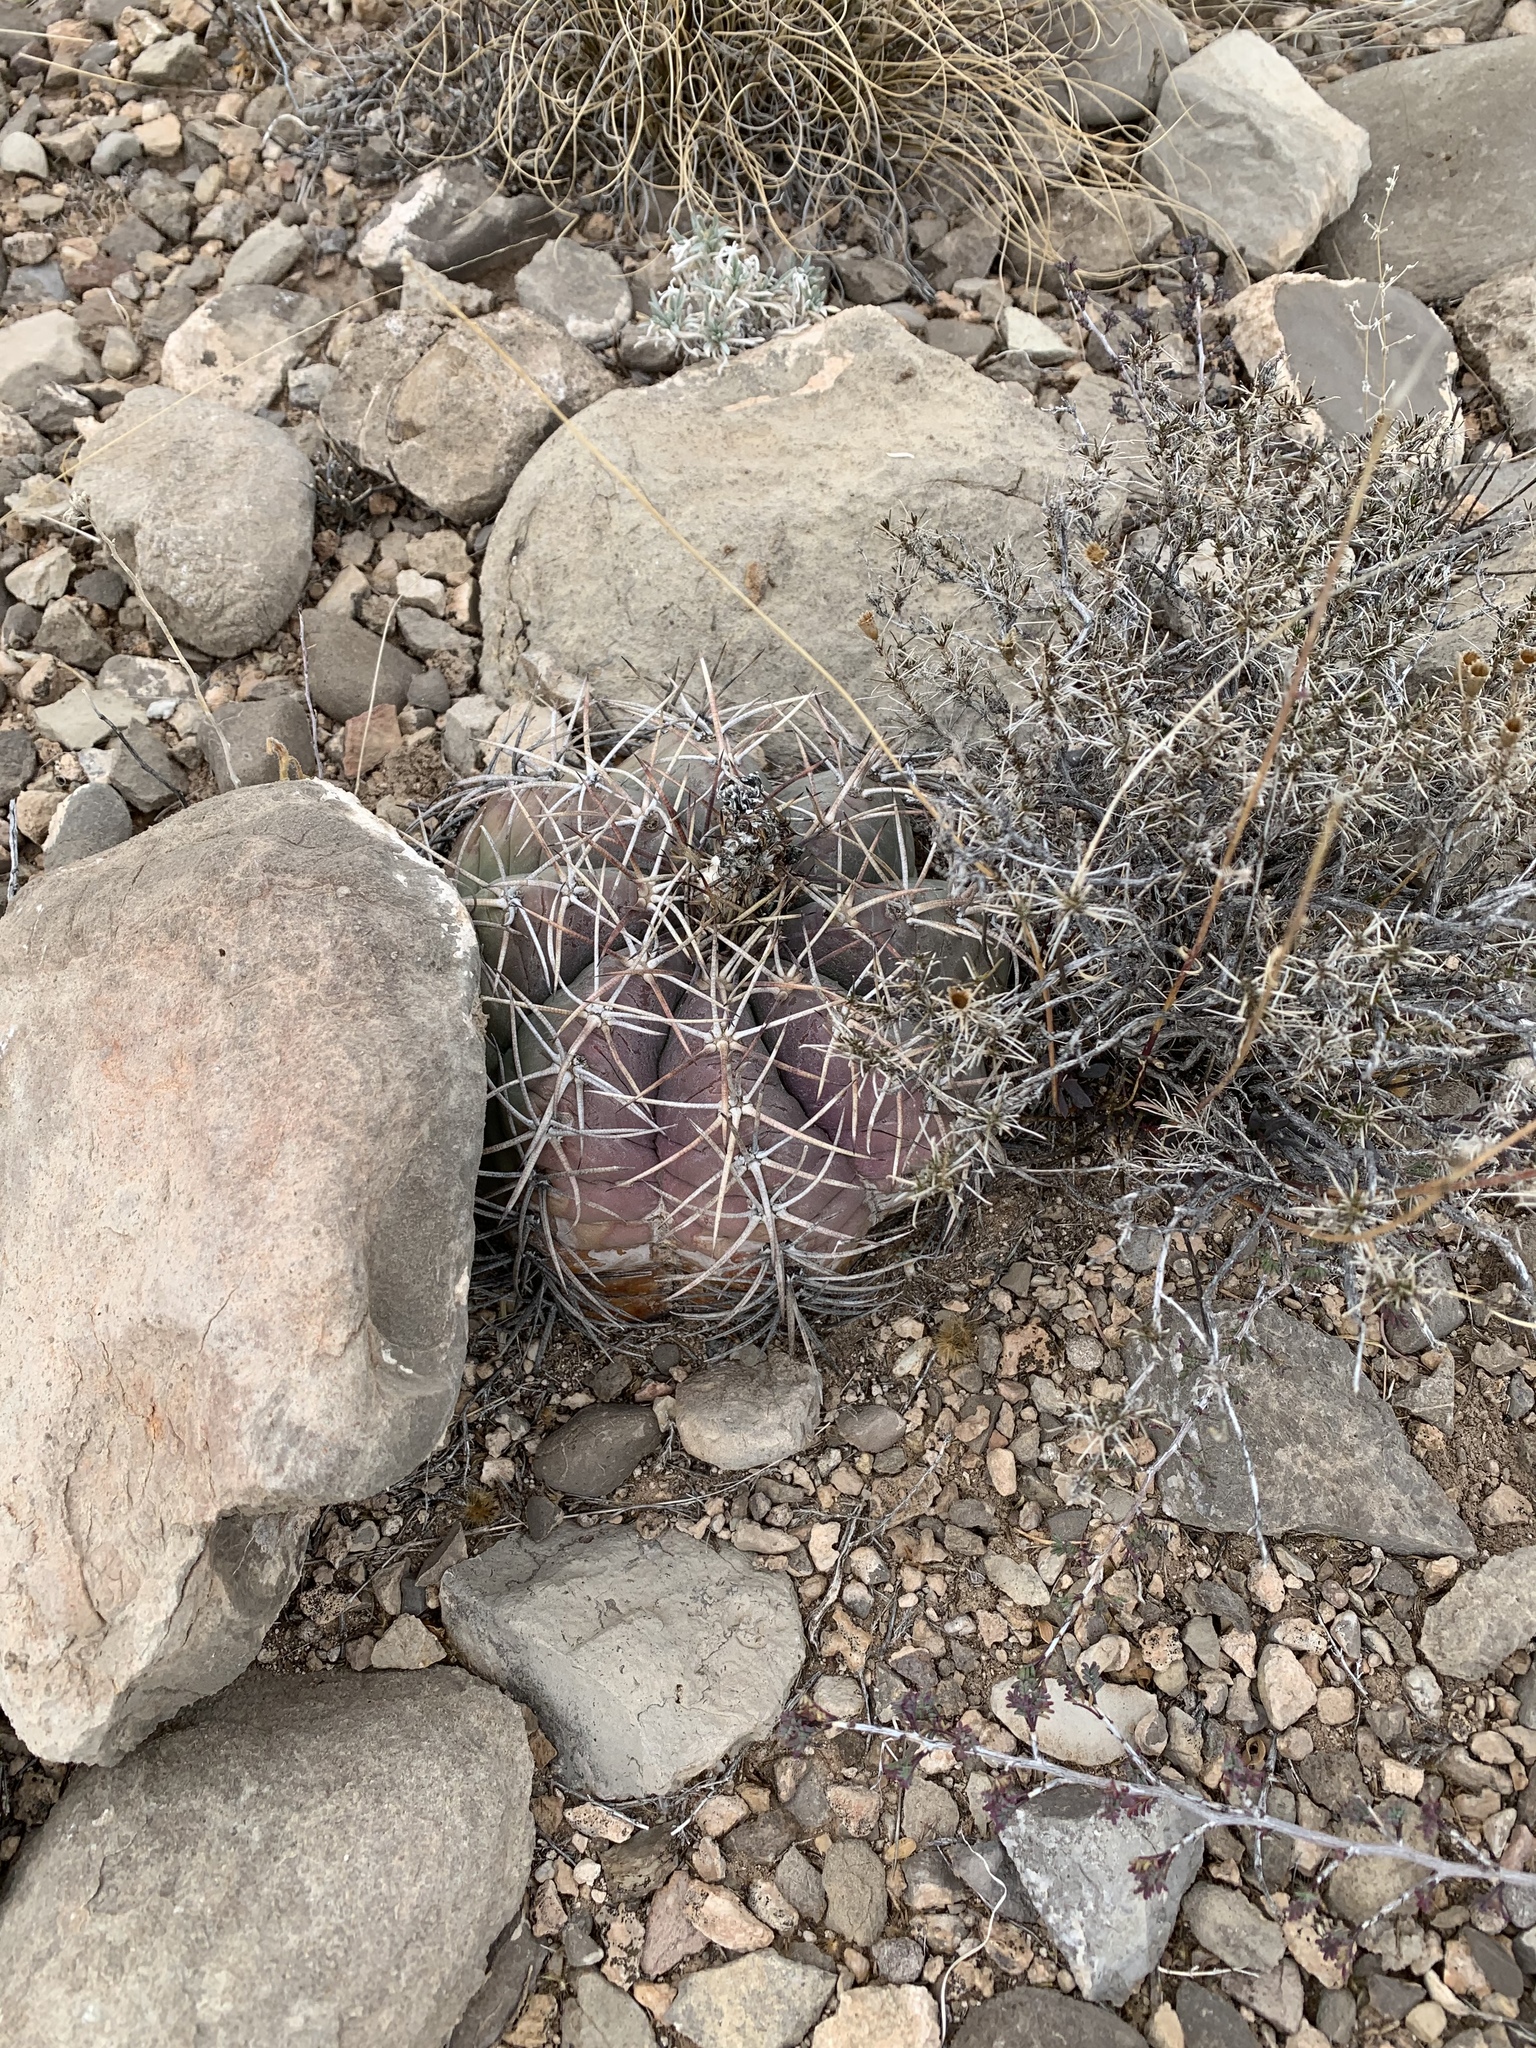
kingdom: Plantae
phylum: Tracheophyta
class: Magnoliopsida
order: Caryophyllales
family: Cactaceae
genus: Echinocactus
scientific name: Echinocactus horizonthalonius
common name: Devilshead
